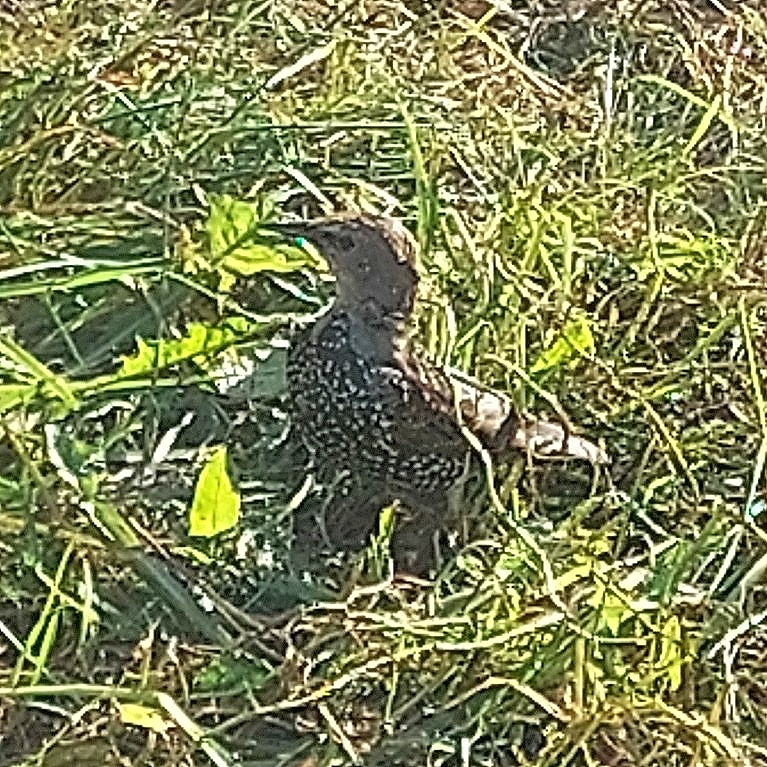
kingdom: Animalia
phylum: Chordata
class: Aves
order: Passeriformes
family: Sturnidae
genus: Sturnus
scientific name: Sturnus vulgaris
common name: Common starling
